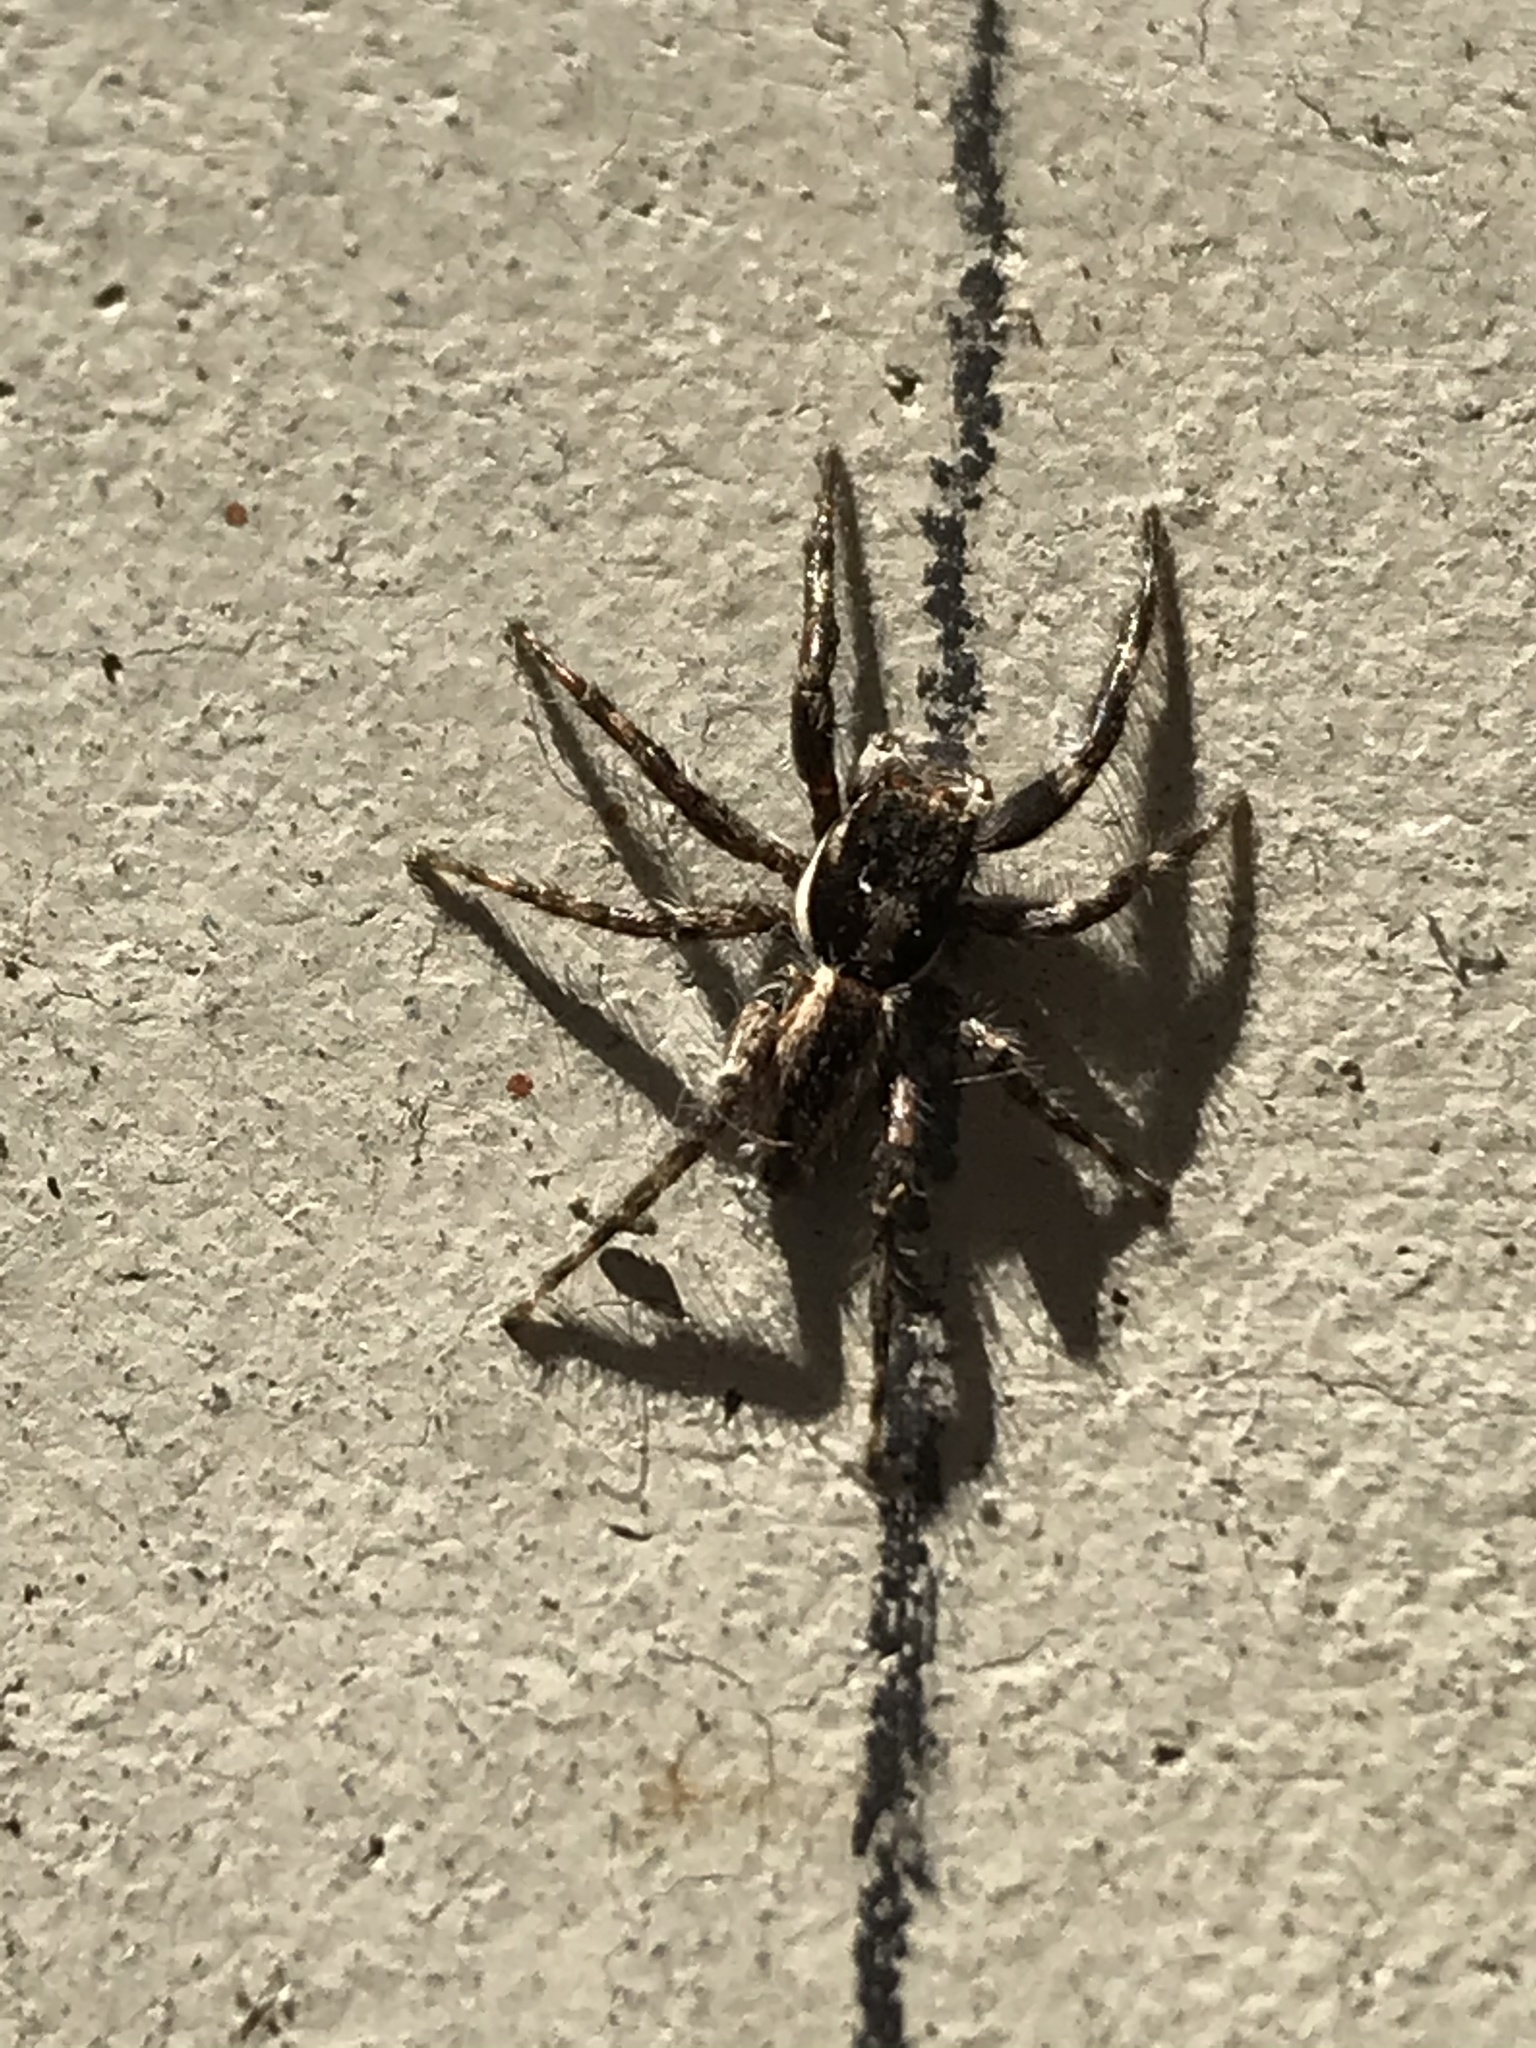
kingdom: Animalia
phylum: Arthropoda
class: Arachnida
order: Araneae
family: Salticidae
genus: Menemerus
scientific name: Menemerus bivittatus
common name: Gray wall jumper
